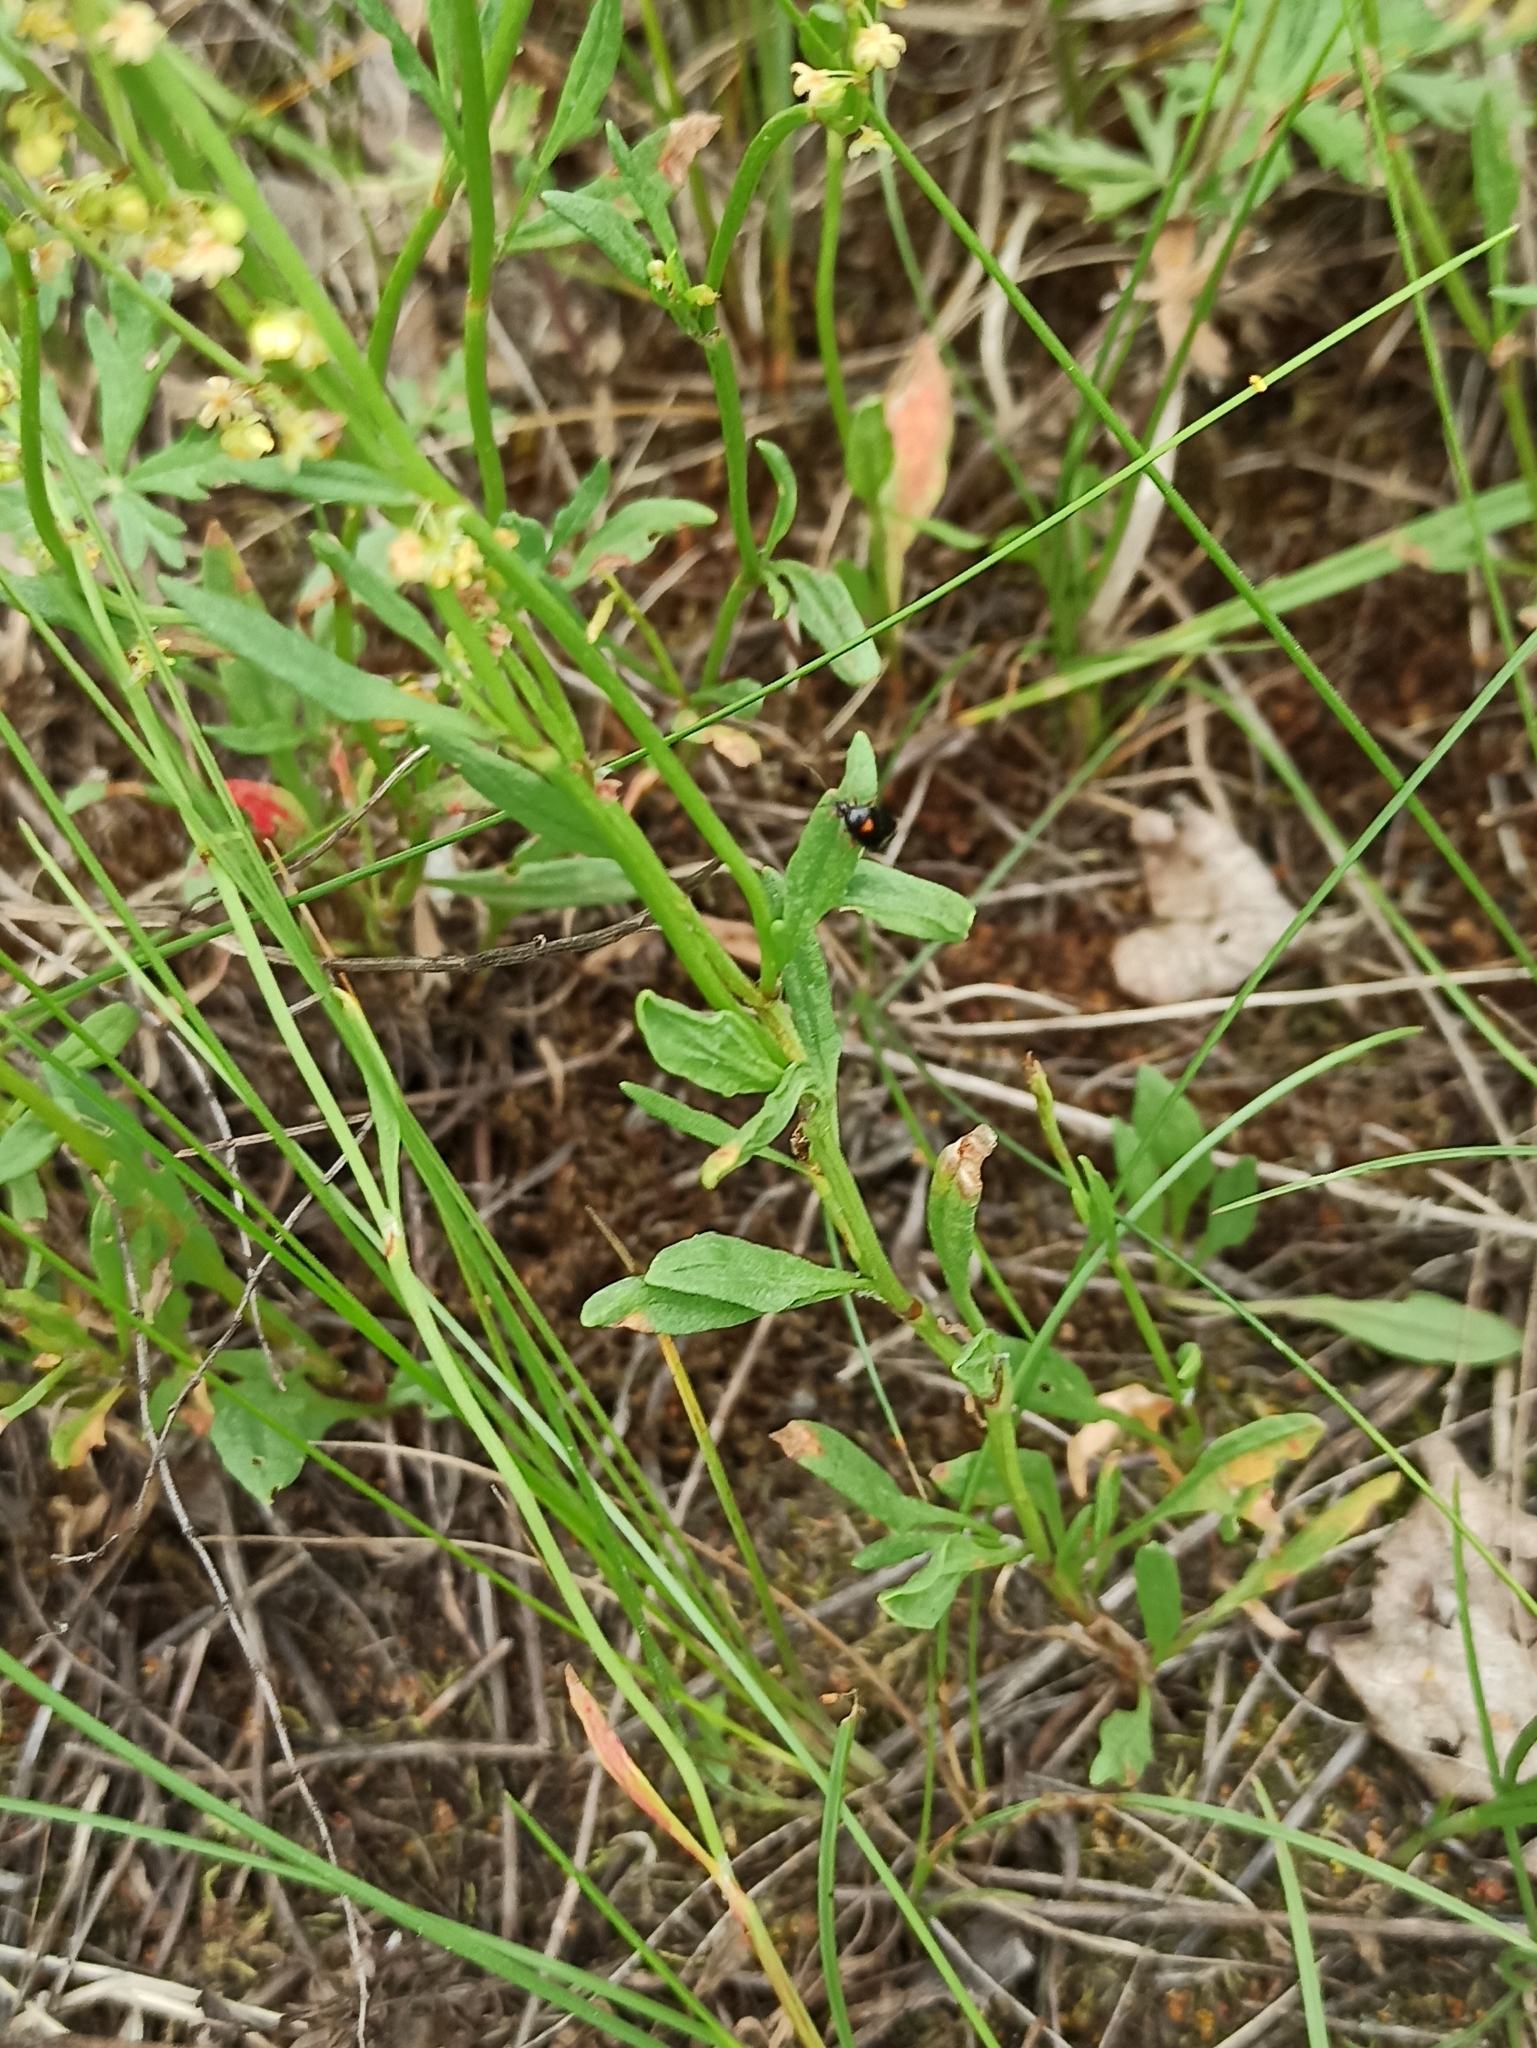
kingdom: Plantae
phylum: Tracheophyta
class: Magnoliopsida
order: Caryophyllales
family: Polygonaceae
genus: Rumex
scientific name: Rumex acetosella
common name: Common sheep sorrel
